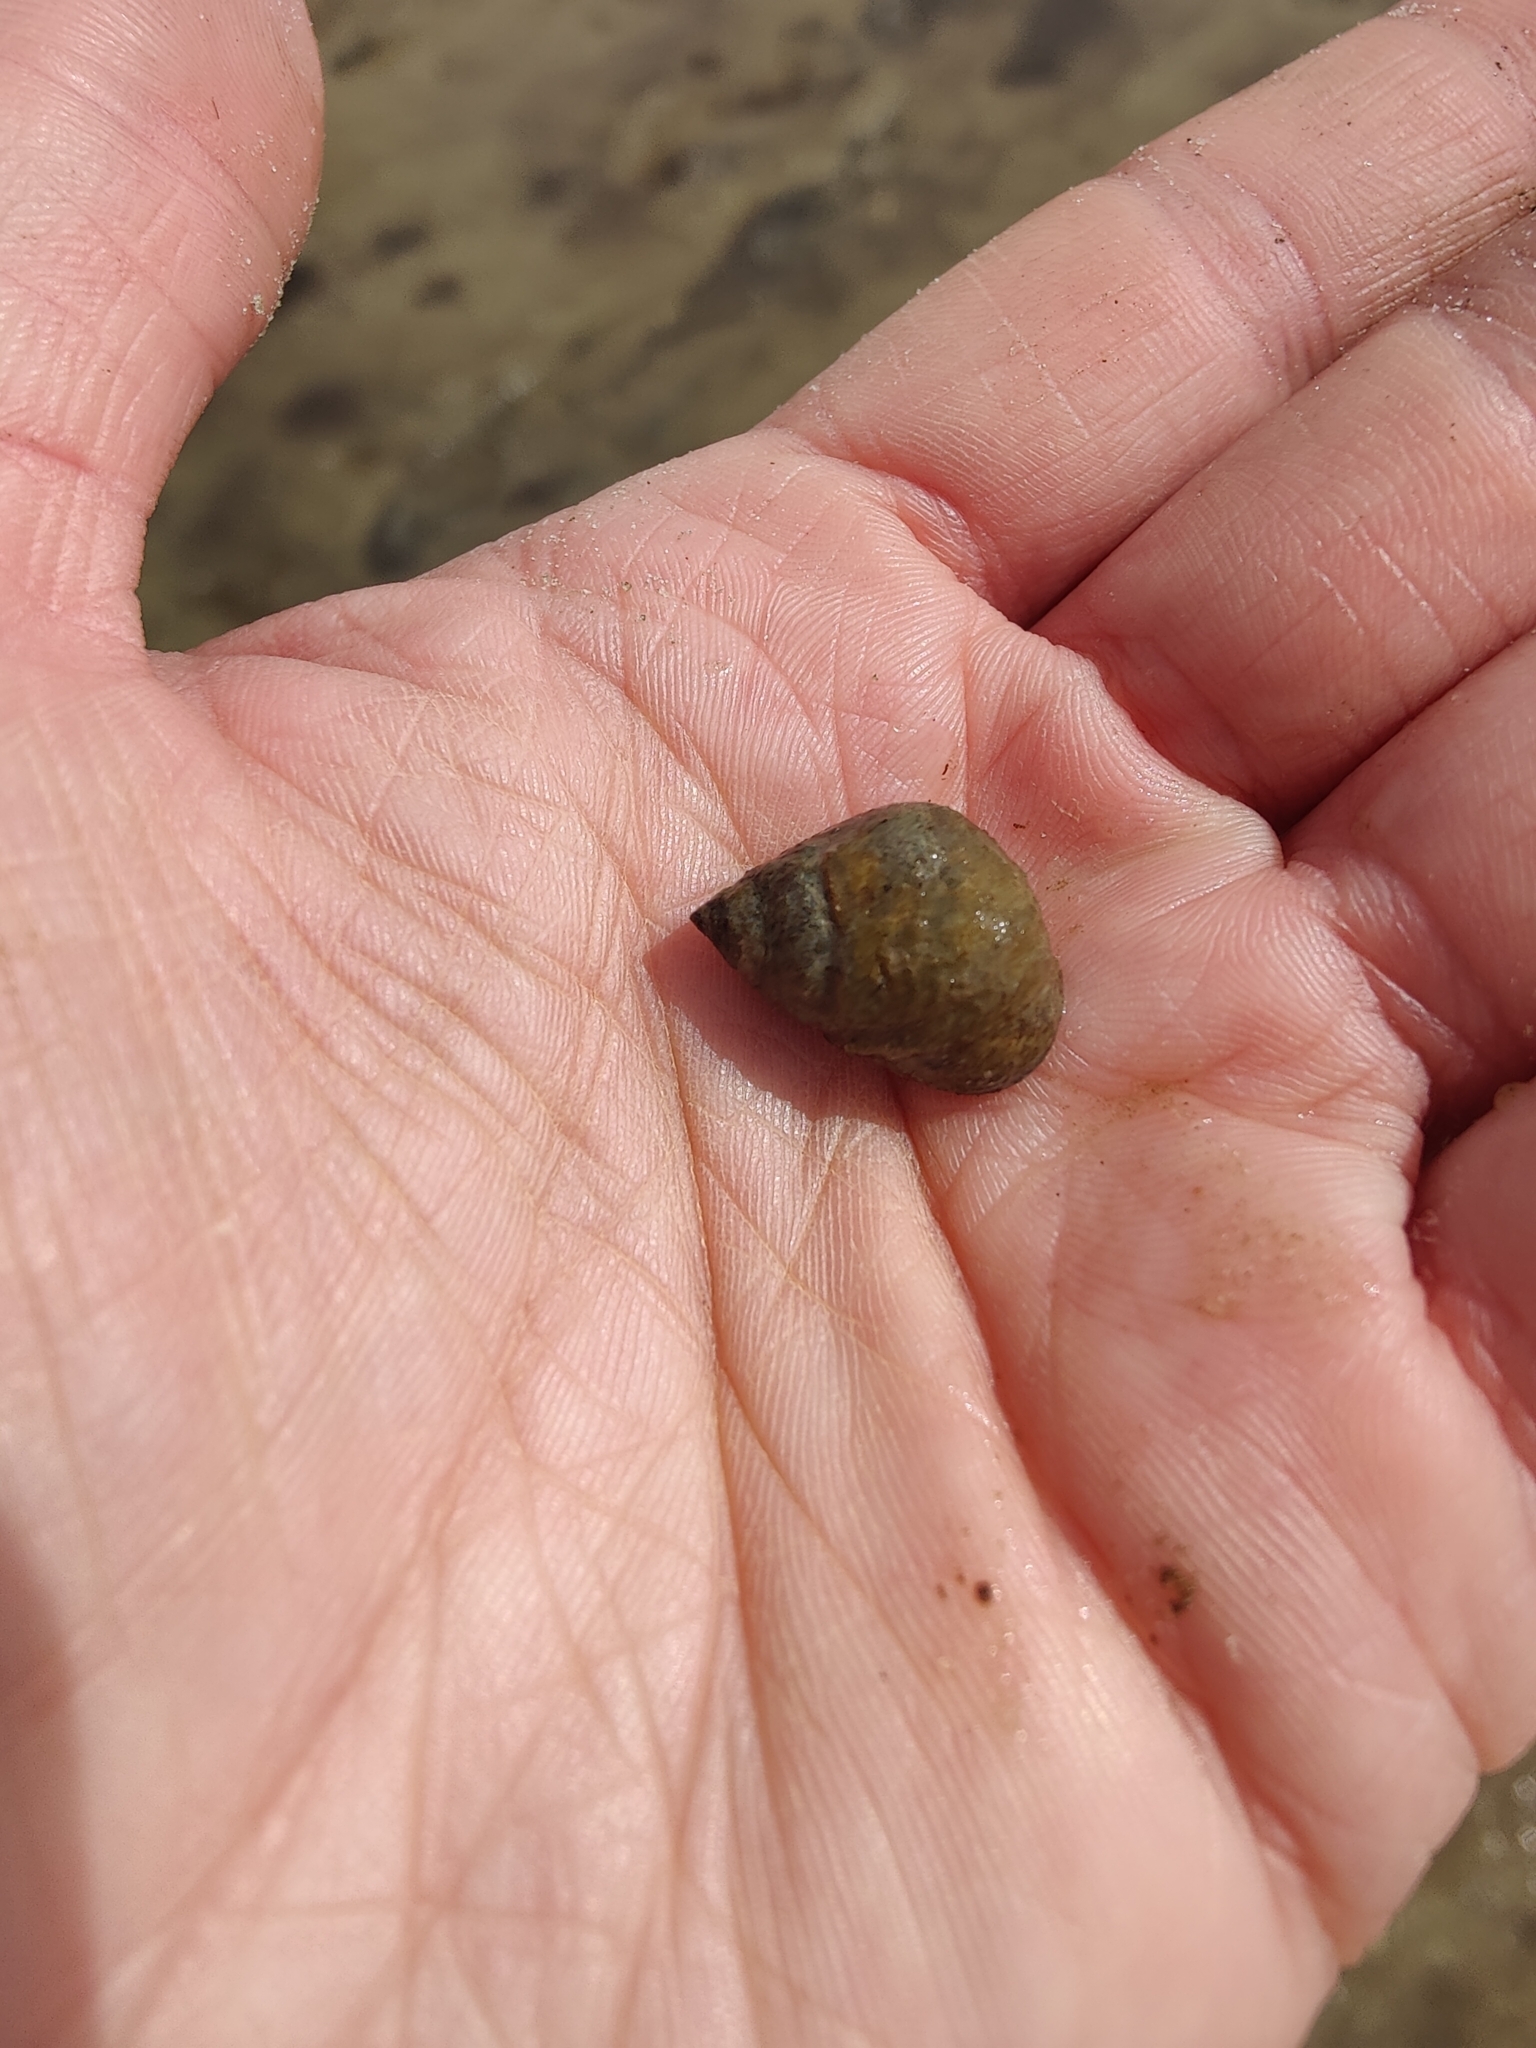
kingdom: Animalia
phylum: Mollusca
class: Gastropoda
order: Littorinimorpha
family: Littorinidae
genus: Littoraria
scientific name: Littoraria irrorata
